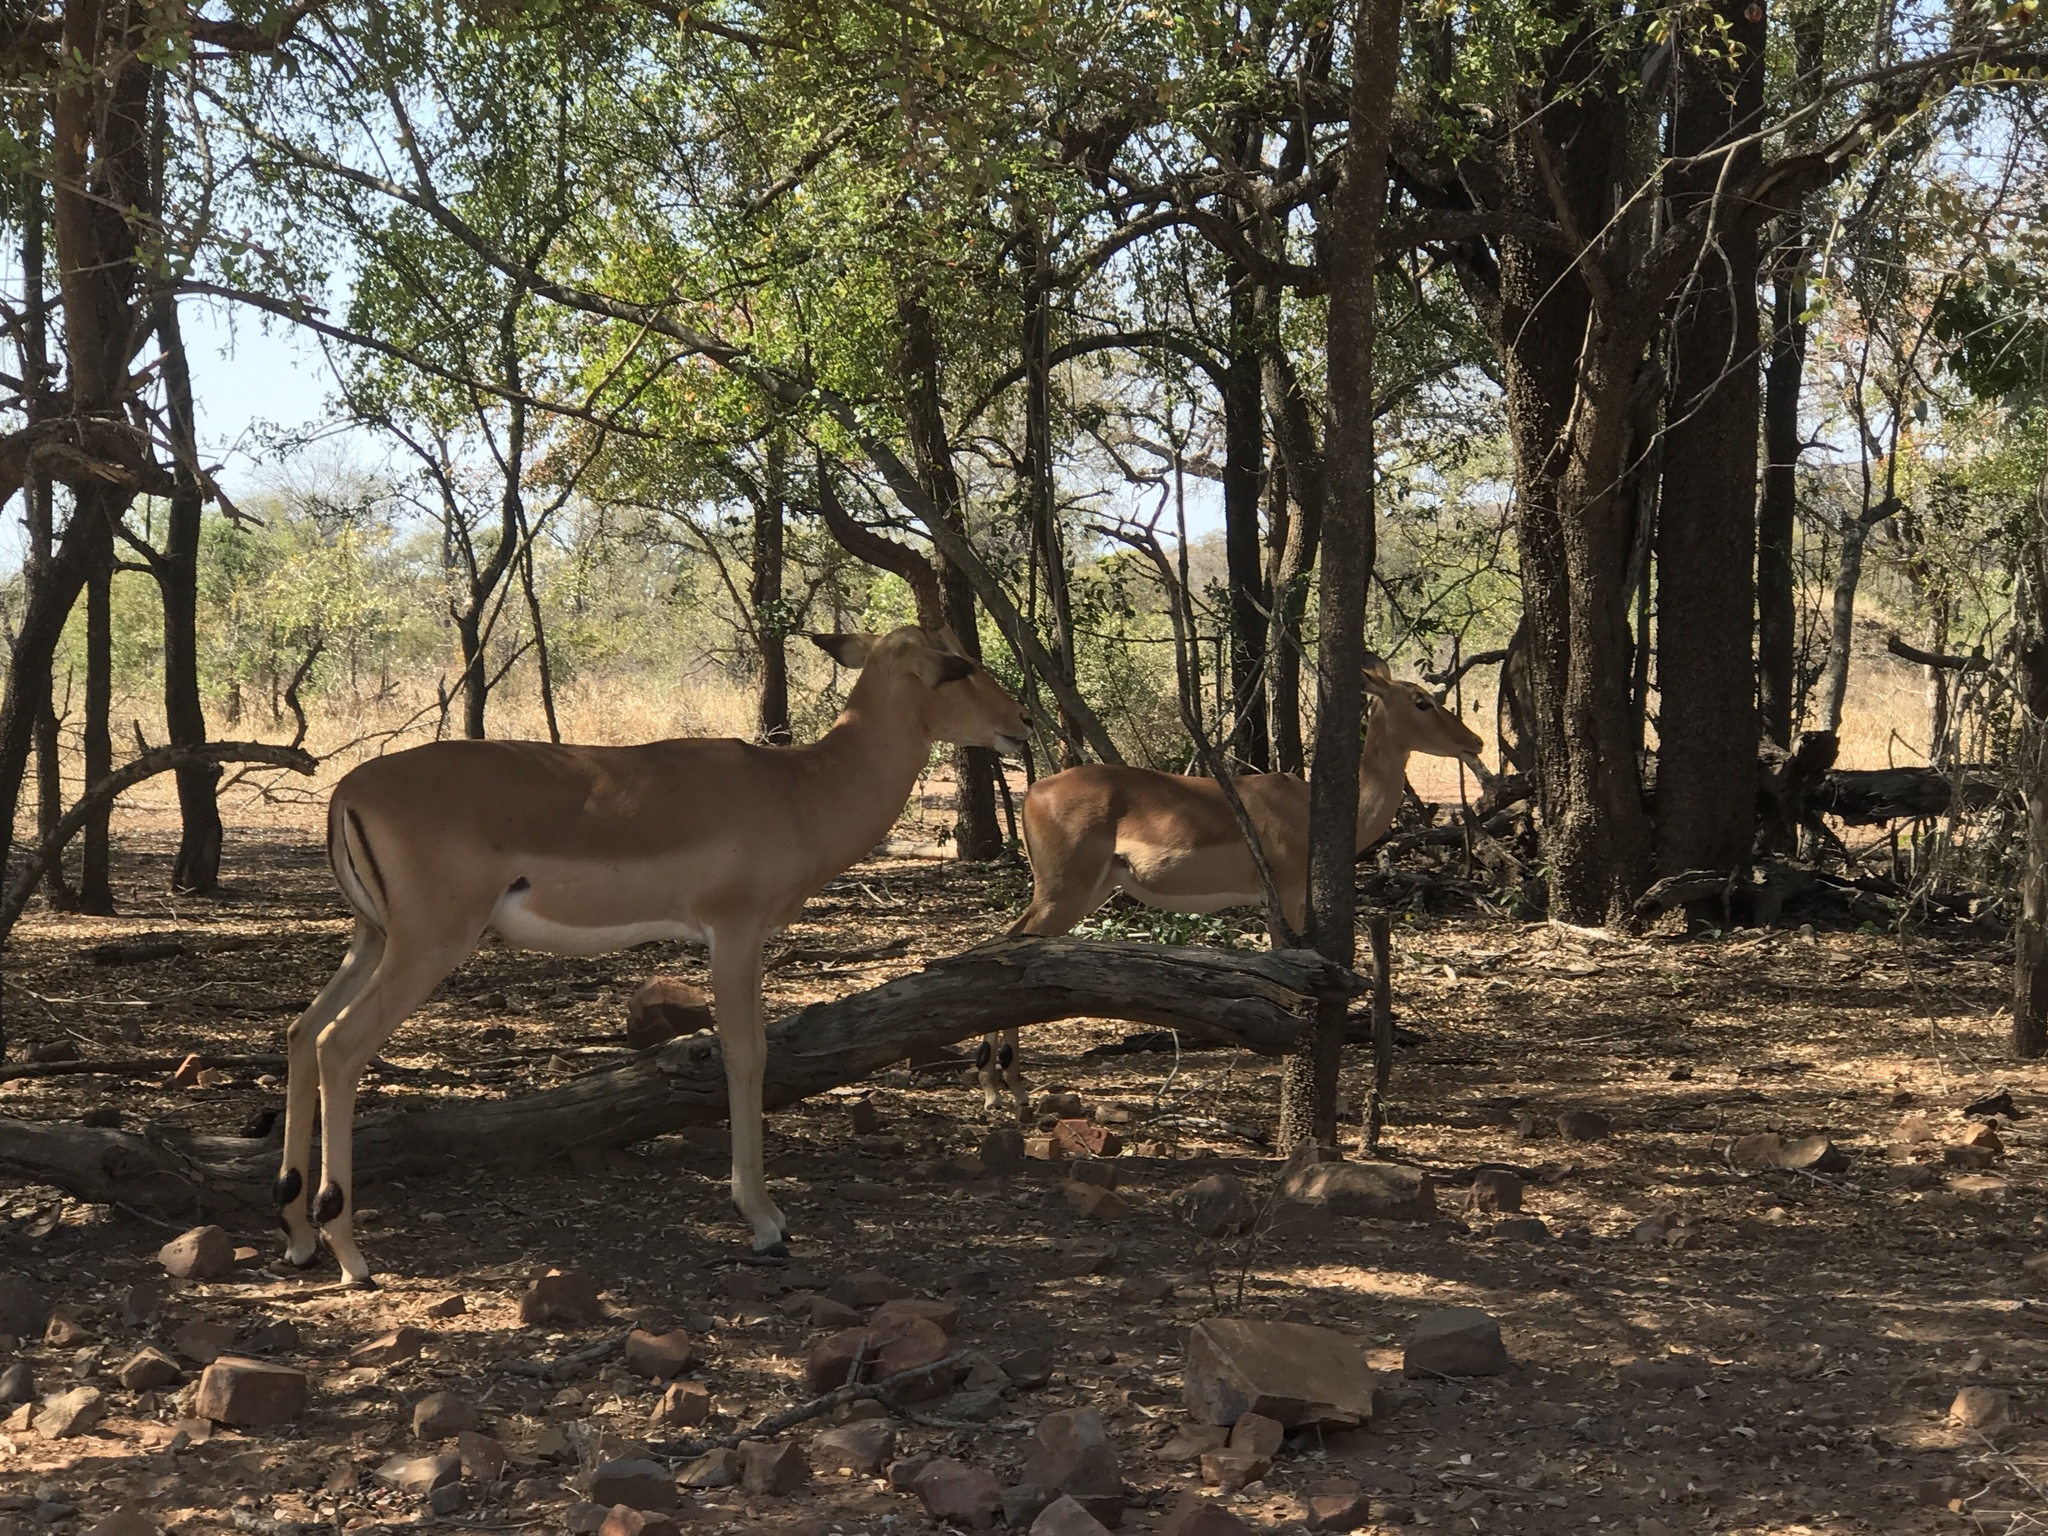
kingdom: Animalia
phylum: Chordata
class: Mammalia
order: Artiodactyla
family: Bovidae
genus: Aepyceros
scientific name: Aepyceros melampus
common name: Impala
